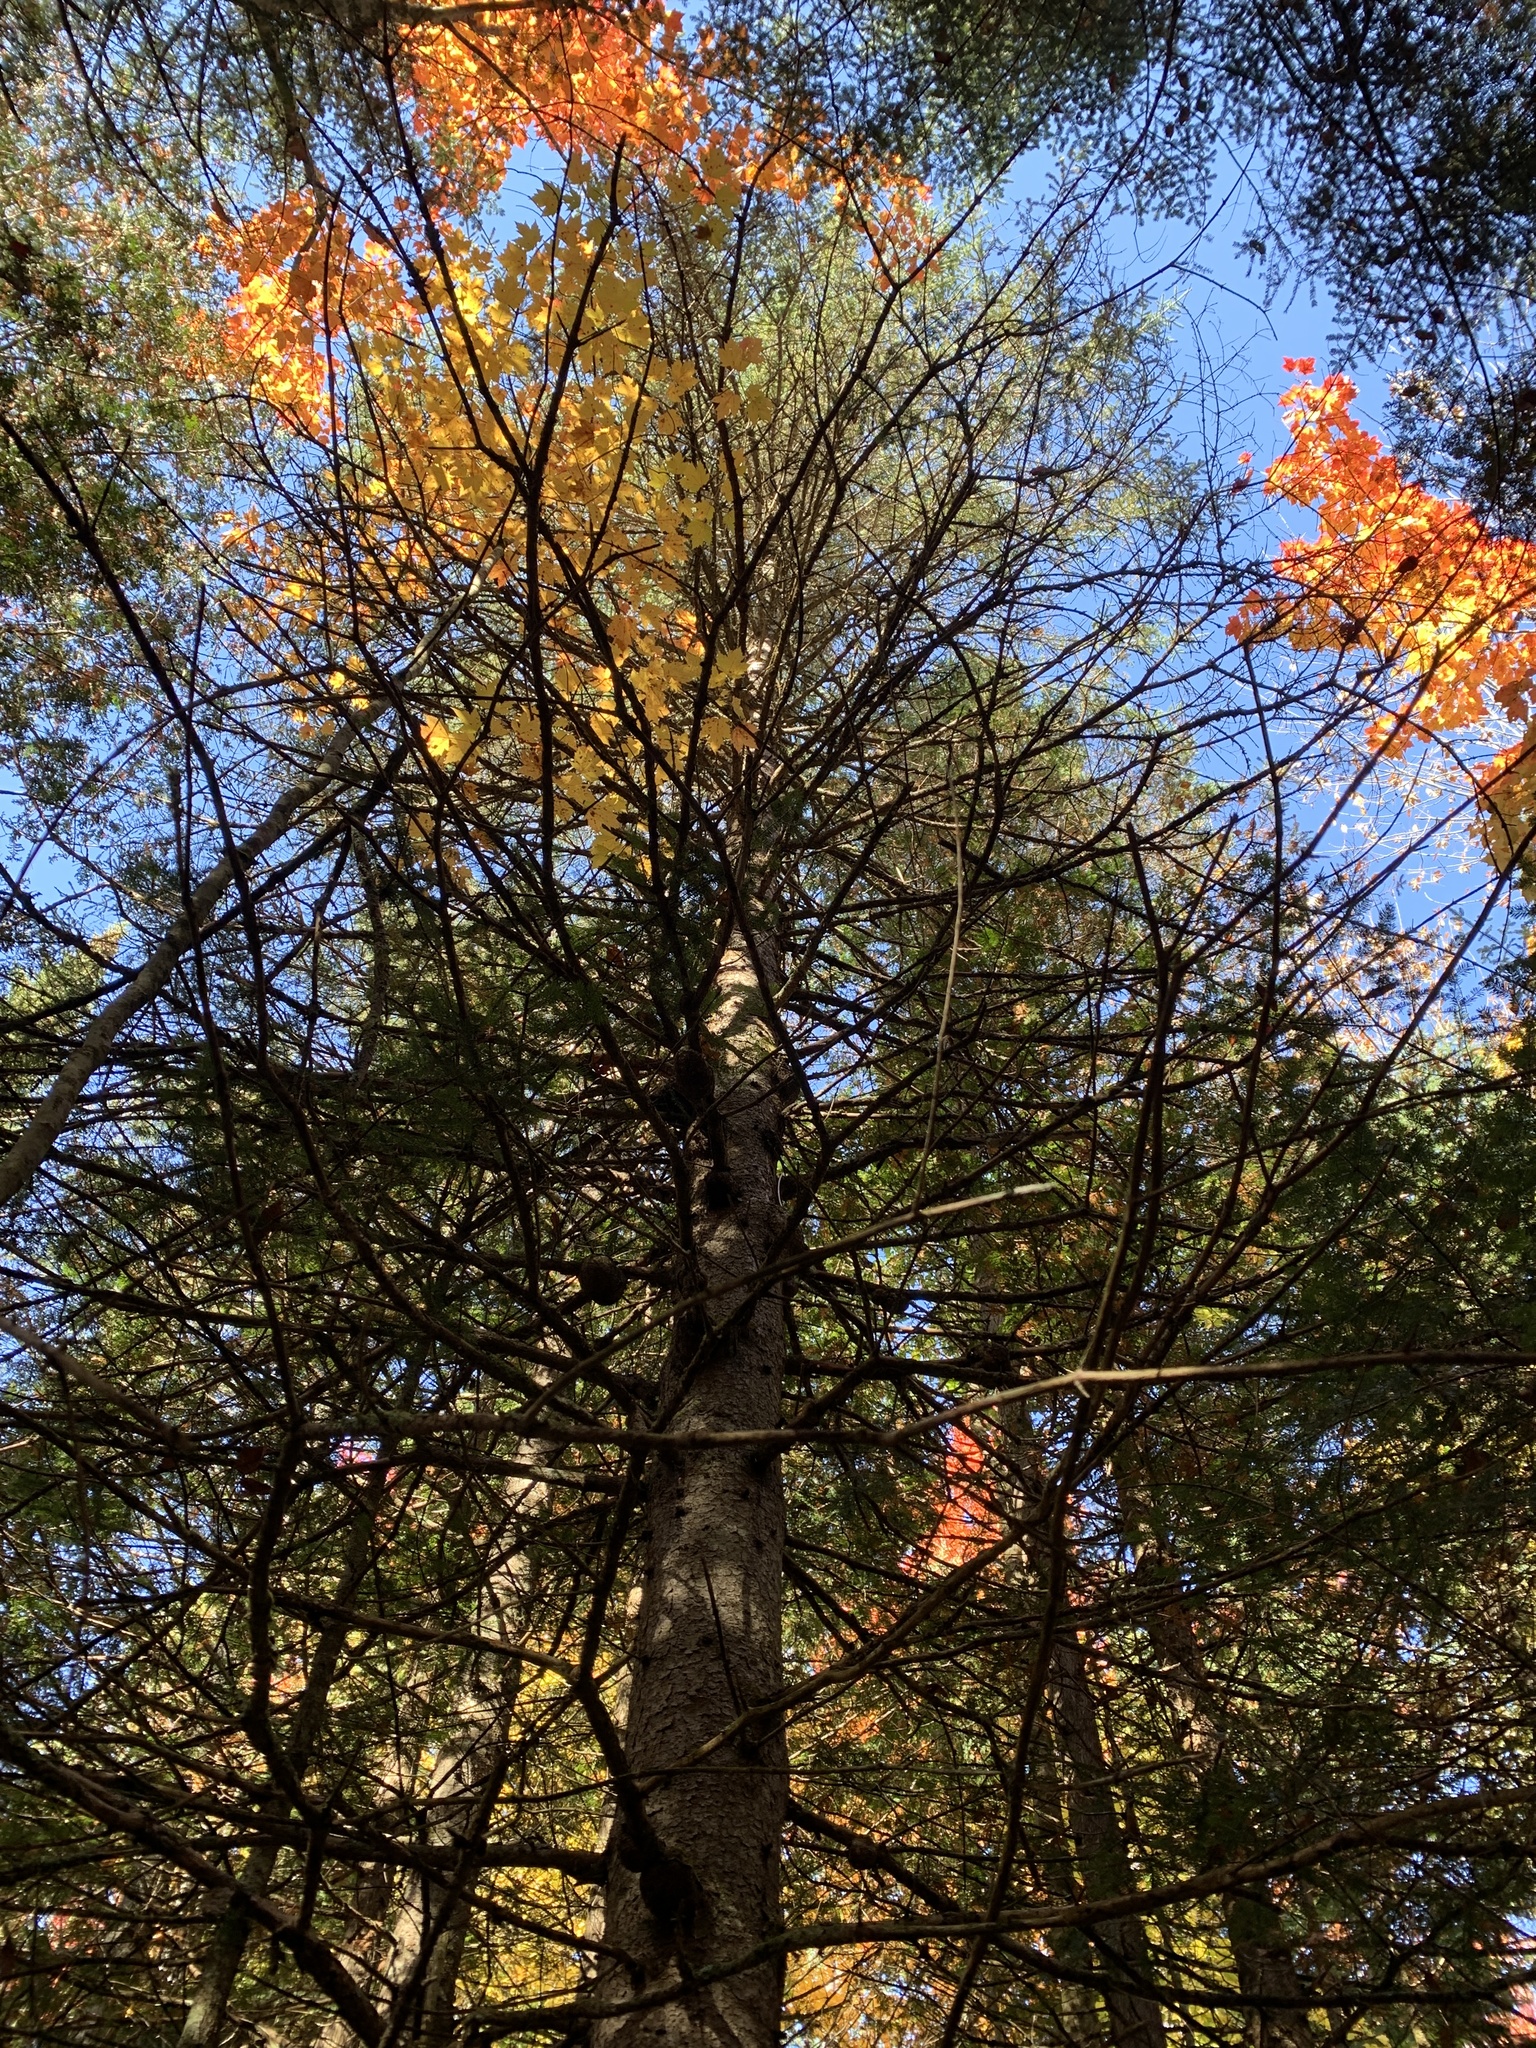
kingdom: Plantae
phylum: Tracheophyta
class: Pinopsida
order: Pinales
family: Pinaceae
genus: Picea
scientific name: Picea glauca
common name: White spruce
